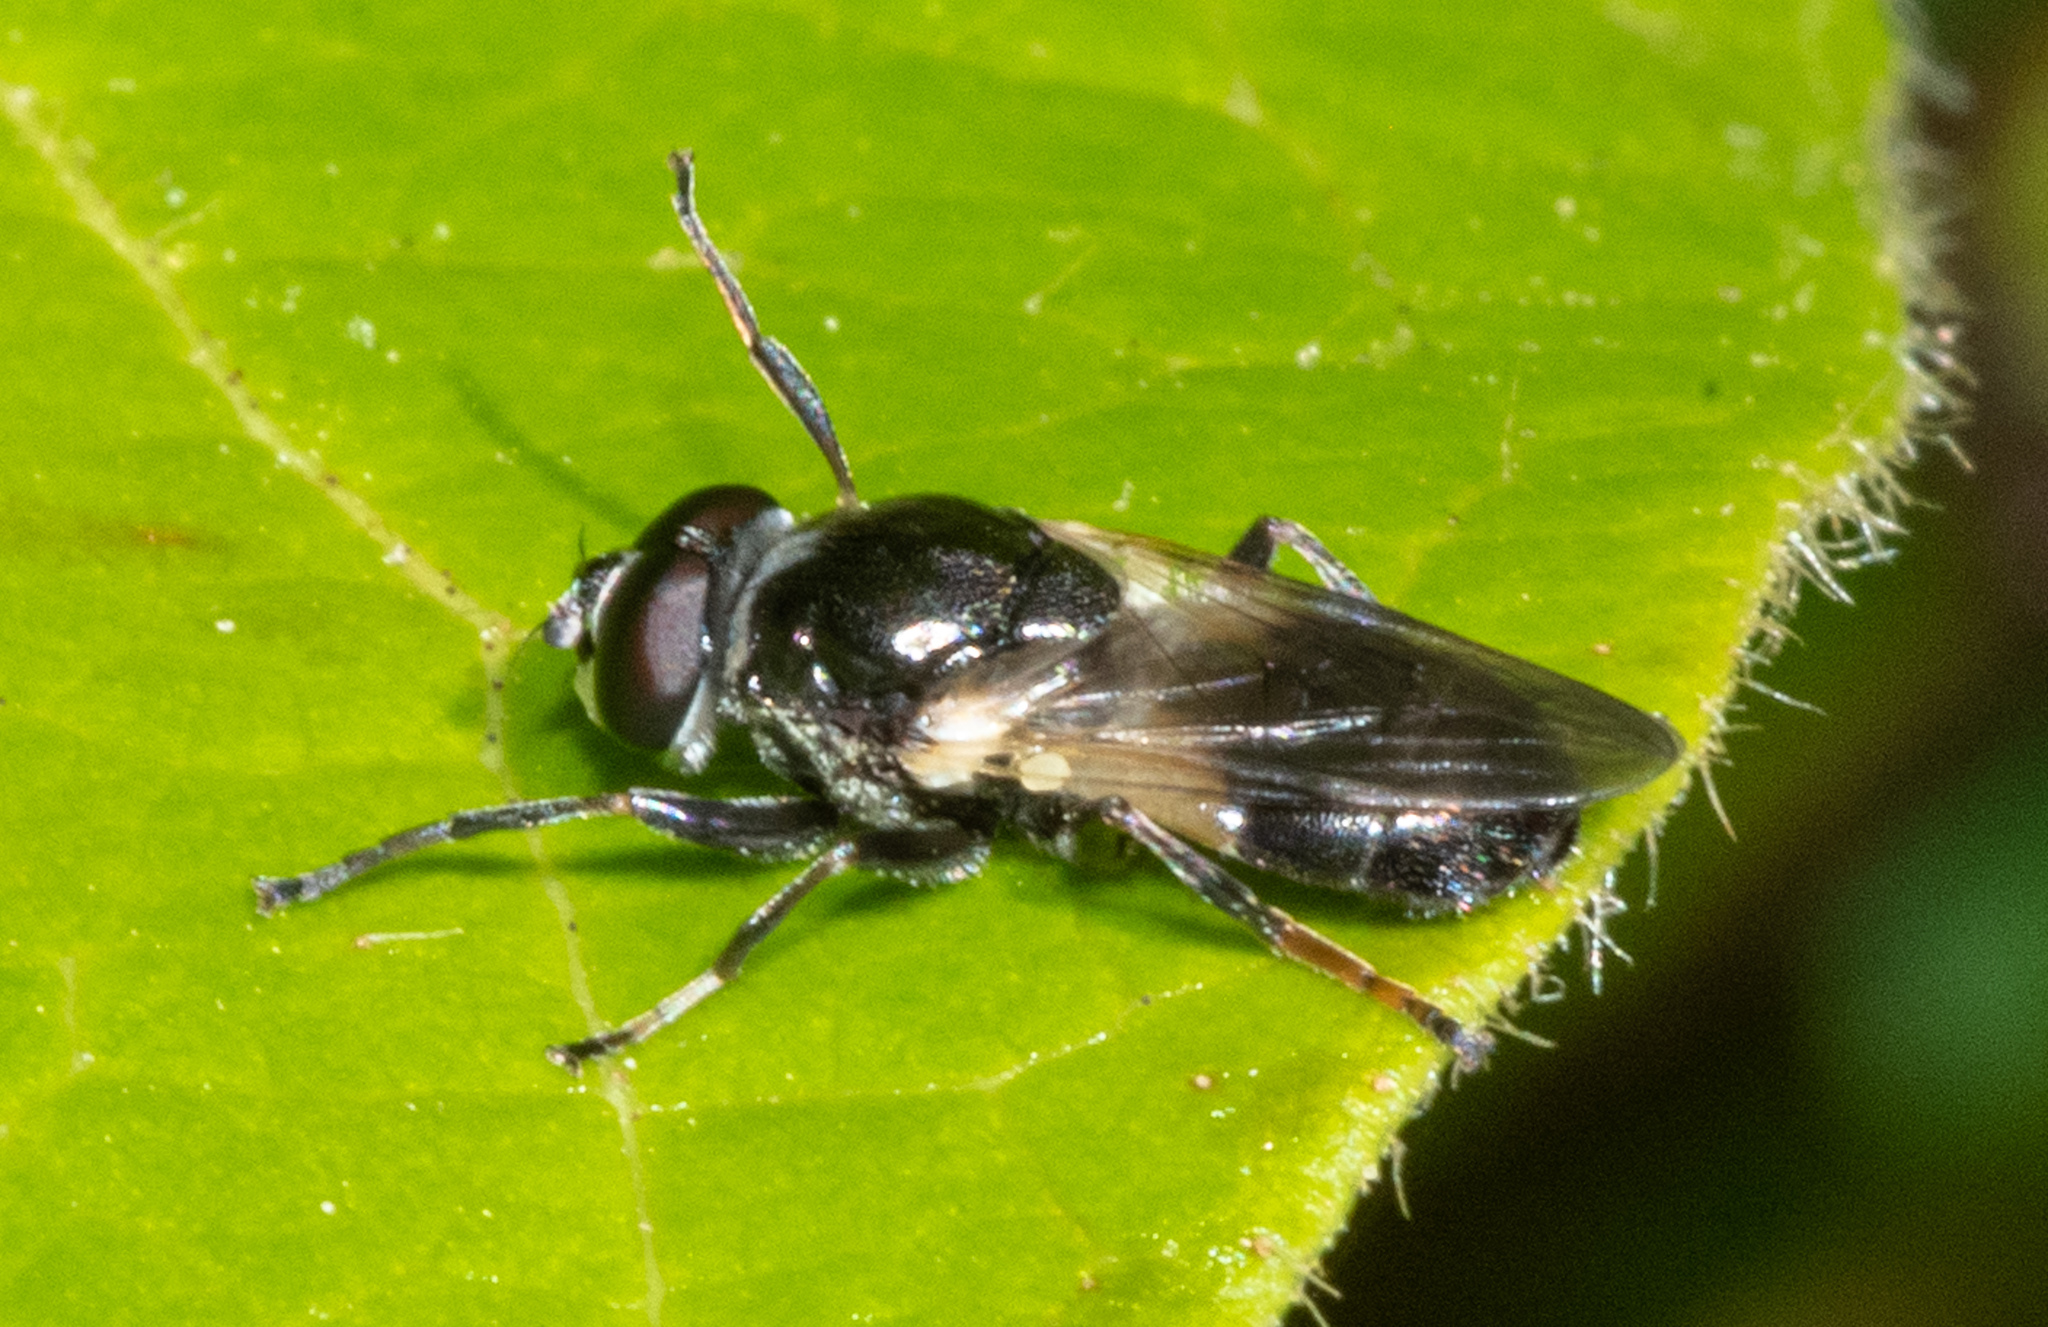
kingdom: Animalia
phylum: Arthropoda
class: Insecta
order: Diptera
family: Syrphidae
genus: Myolepta
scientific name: Myolepta lunulata
